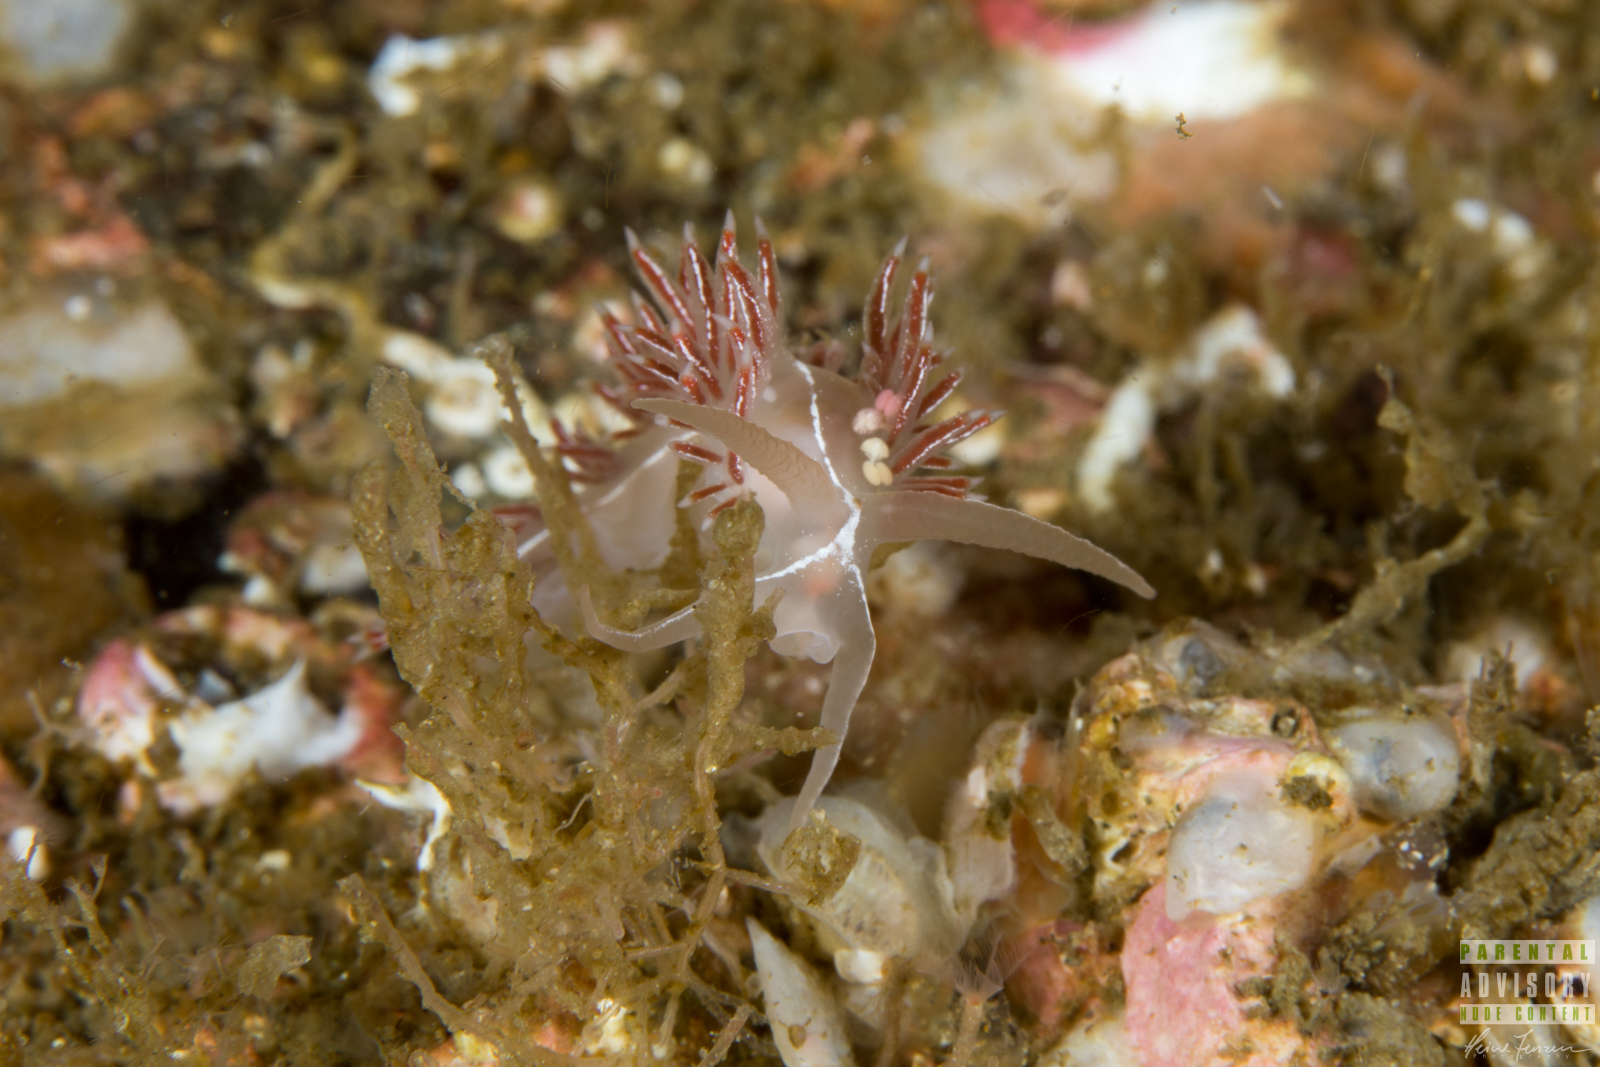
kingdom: Animalia
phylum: Mollusca
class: Gastropoda
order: Nudibranchia
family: Coryphellidae
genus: Coryphella
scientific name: Coryphella chriskaugei
